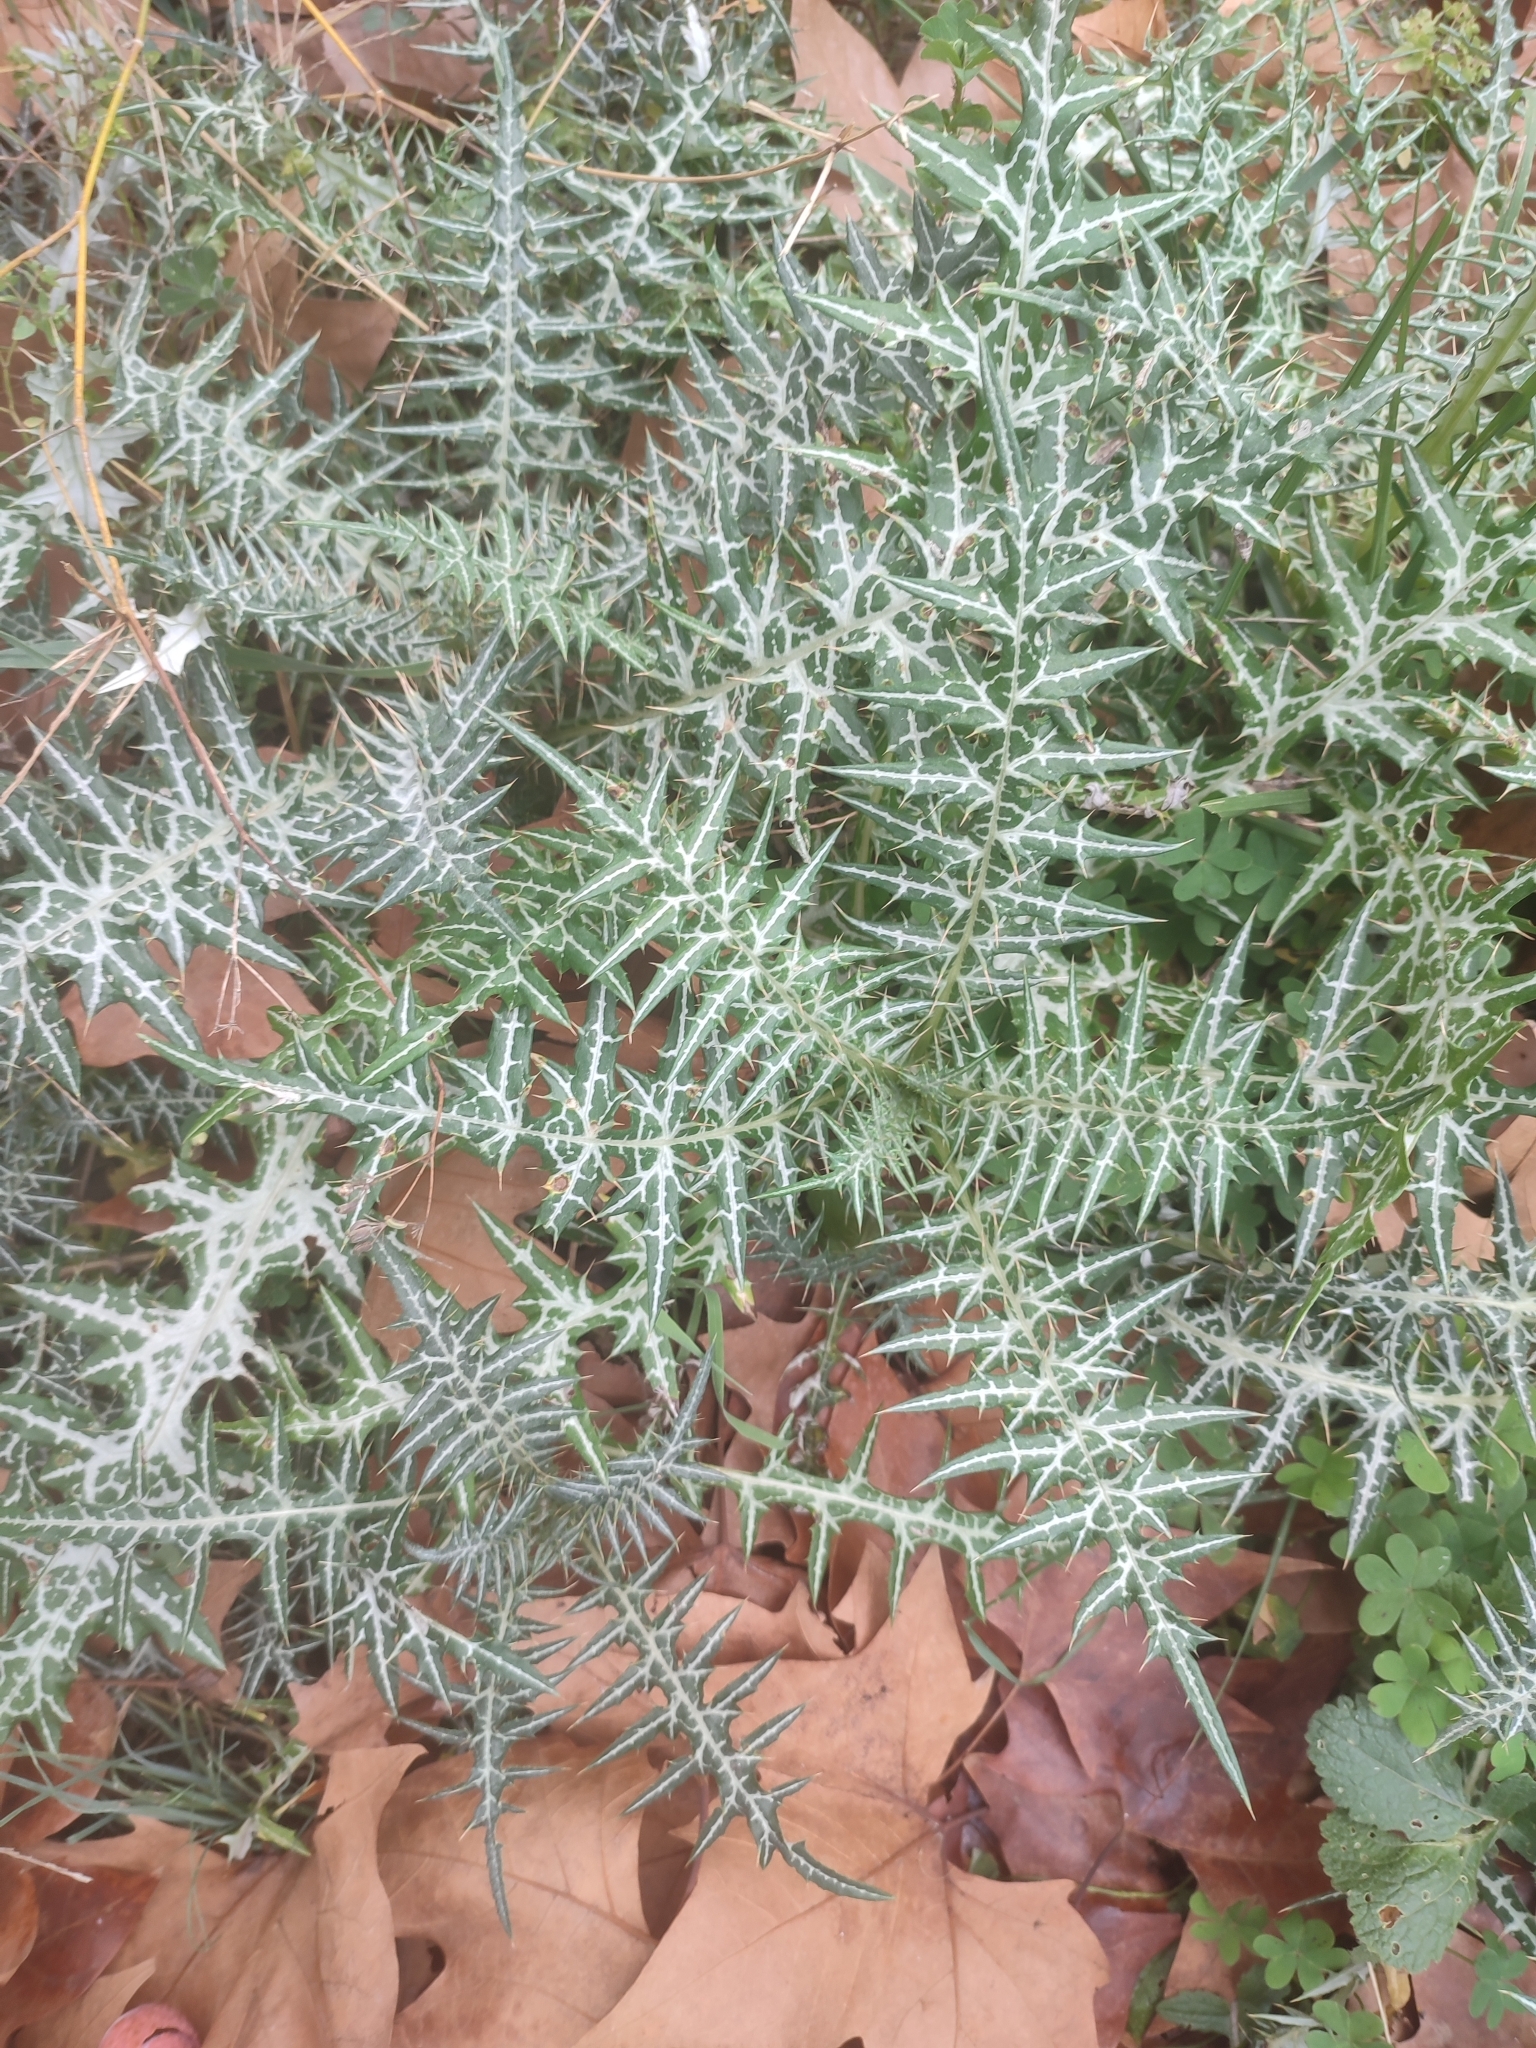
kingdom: Plantae
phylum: Tracheophyta
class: Magnoliopsida
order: Asterales
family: Asteraceae
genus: Galactites
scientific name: Galactites tomentosa
